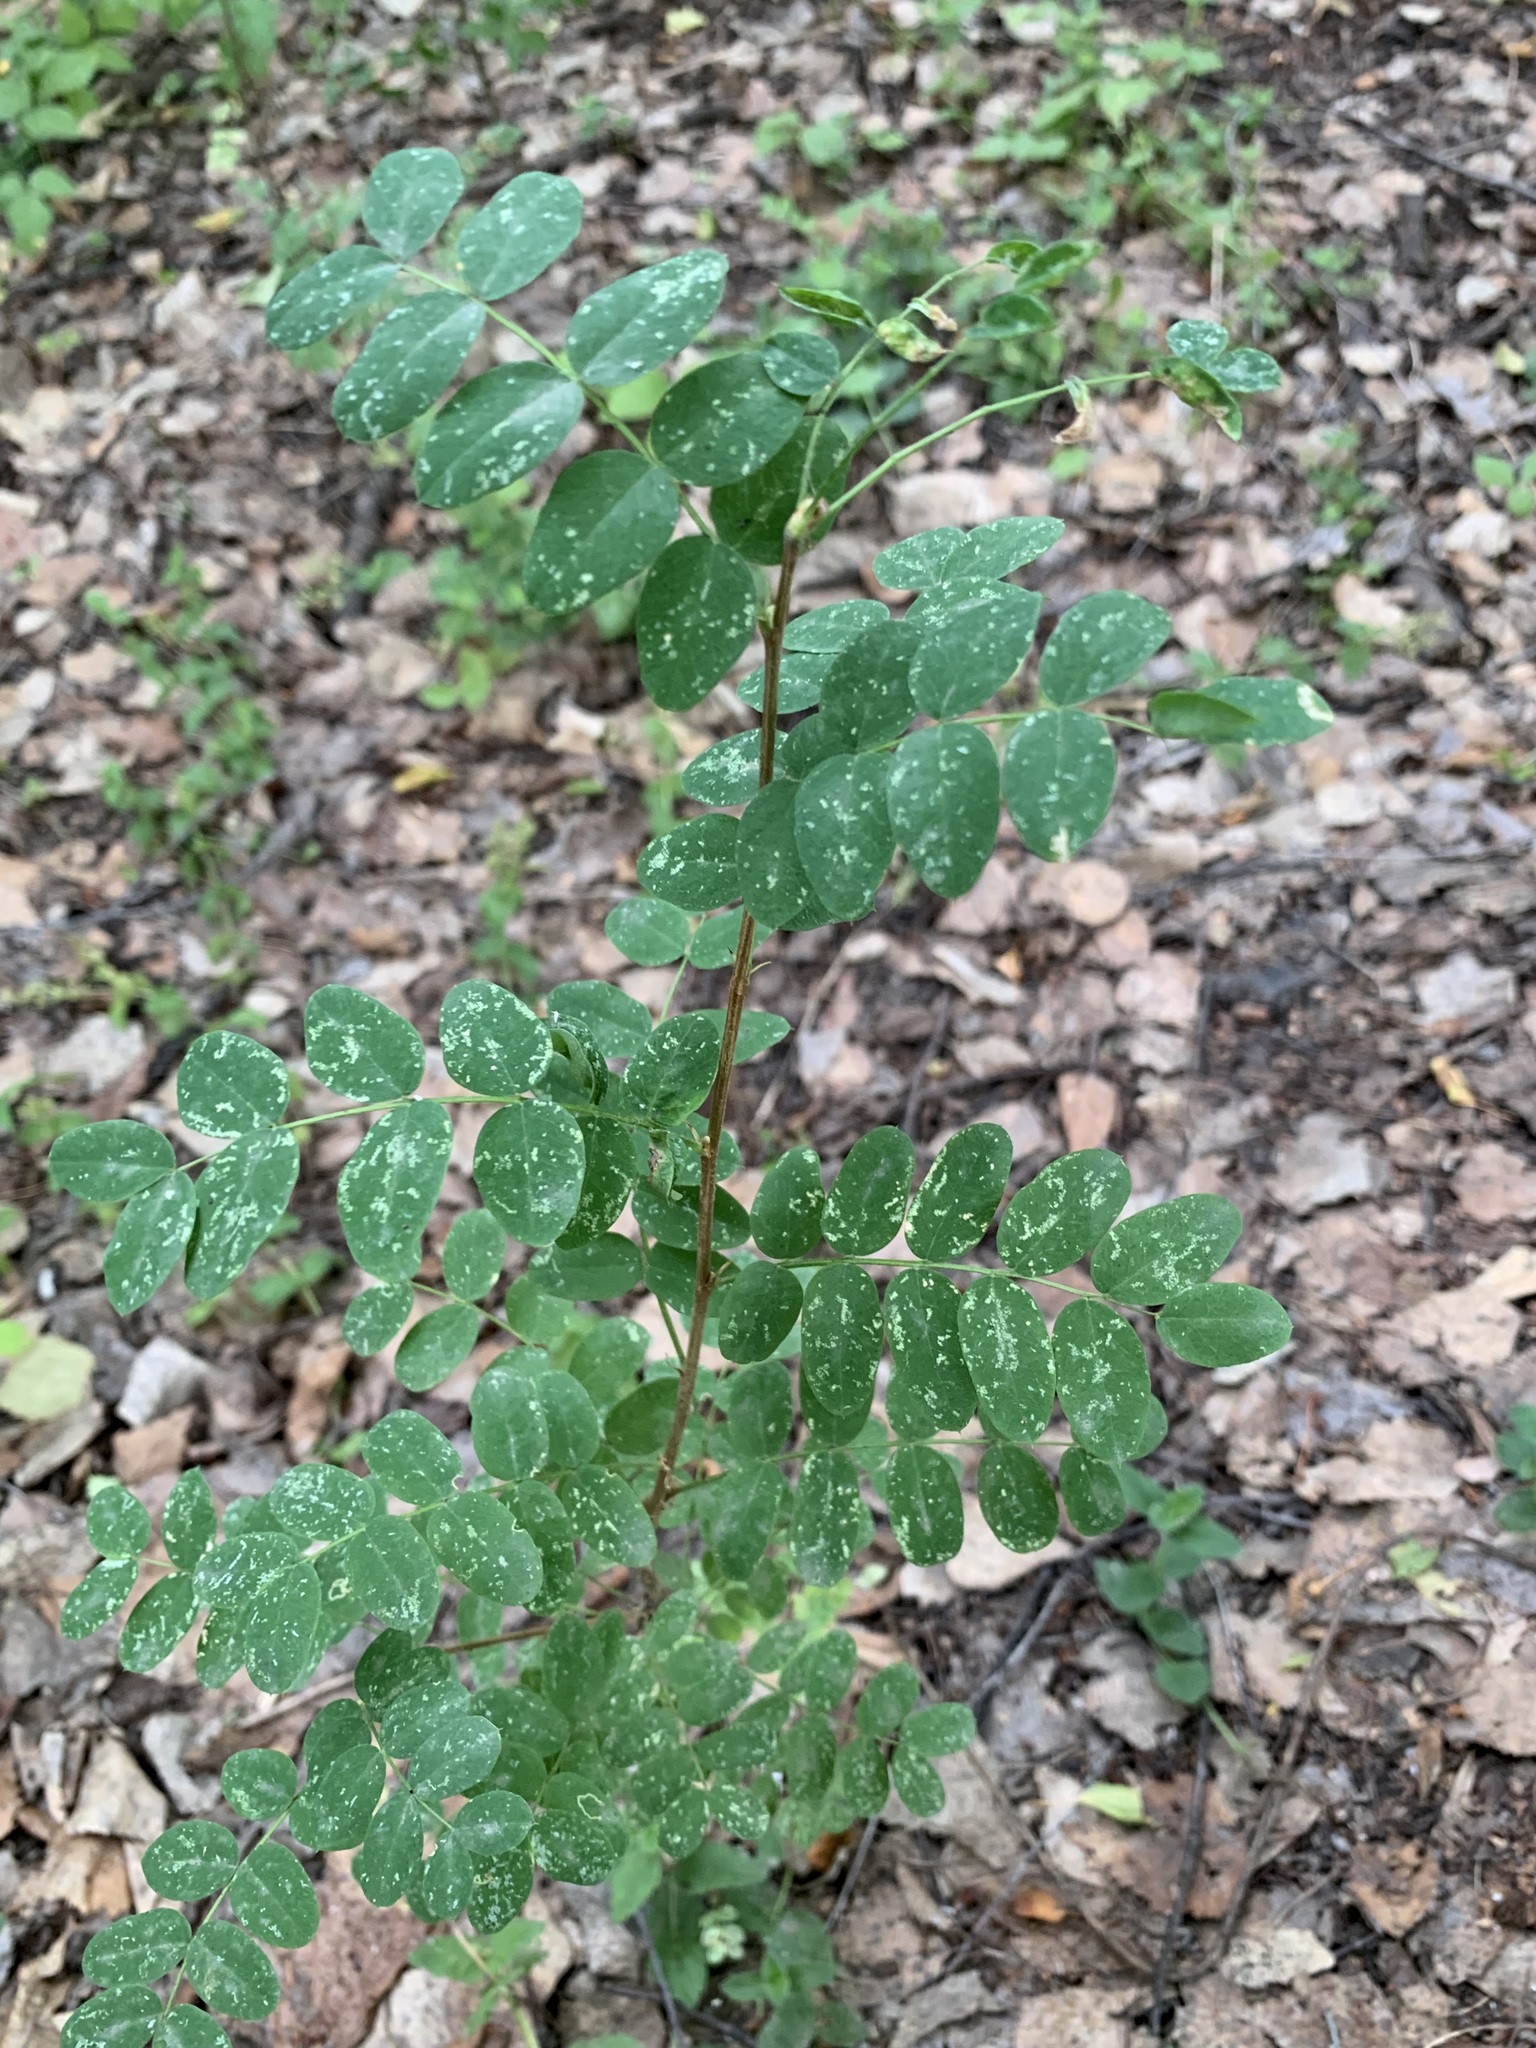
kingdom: Plantae
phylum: Tracheophyta
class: Magnoliopsida
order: Fabales
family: Fabaceae
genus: Caragana
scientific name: Caragana arborescens
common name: Siberian peashrub
